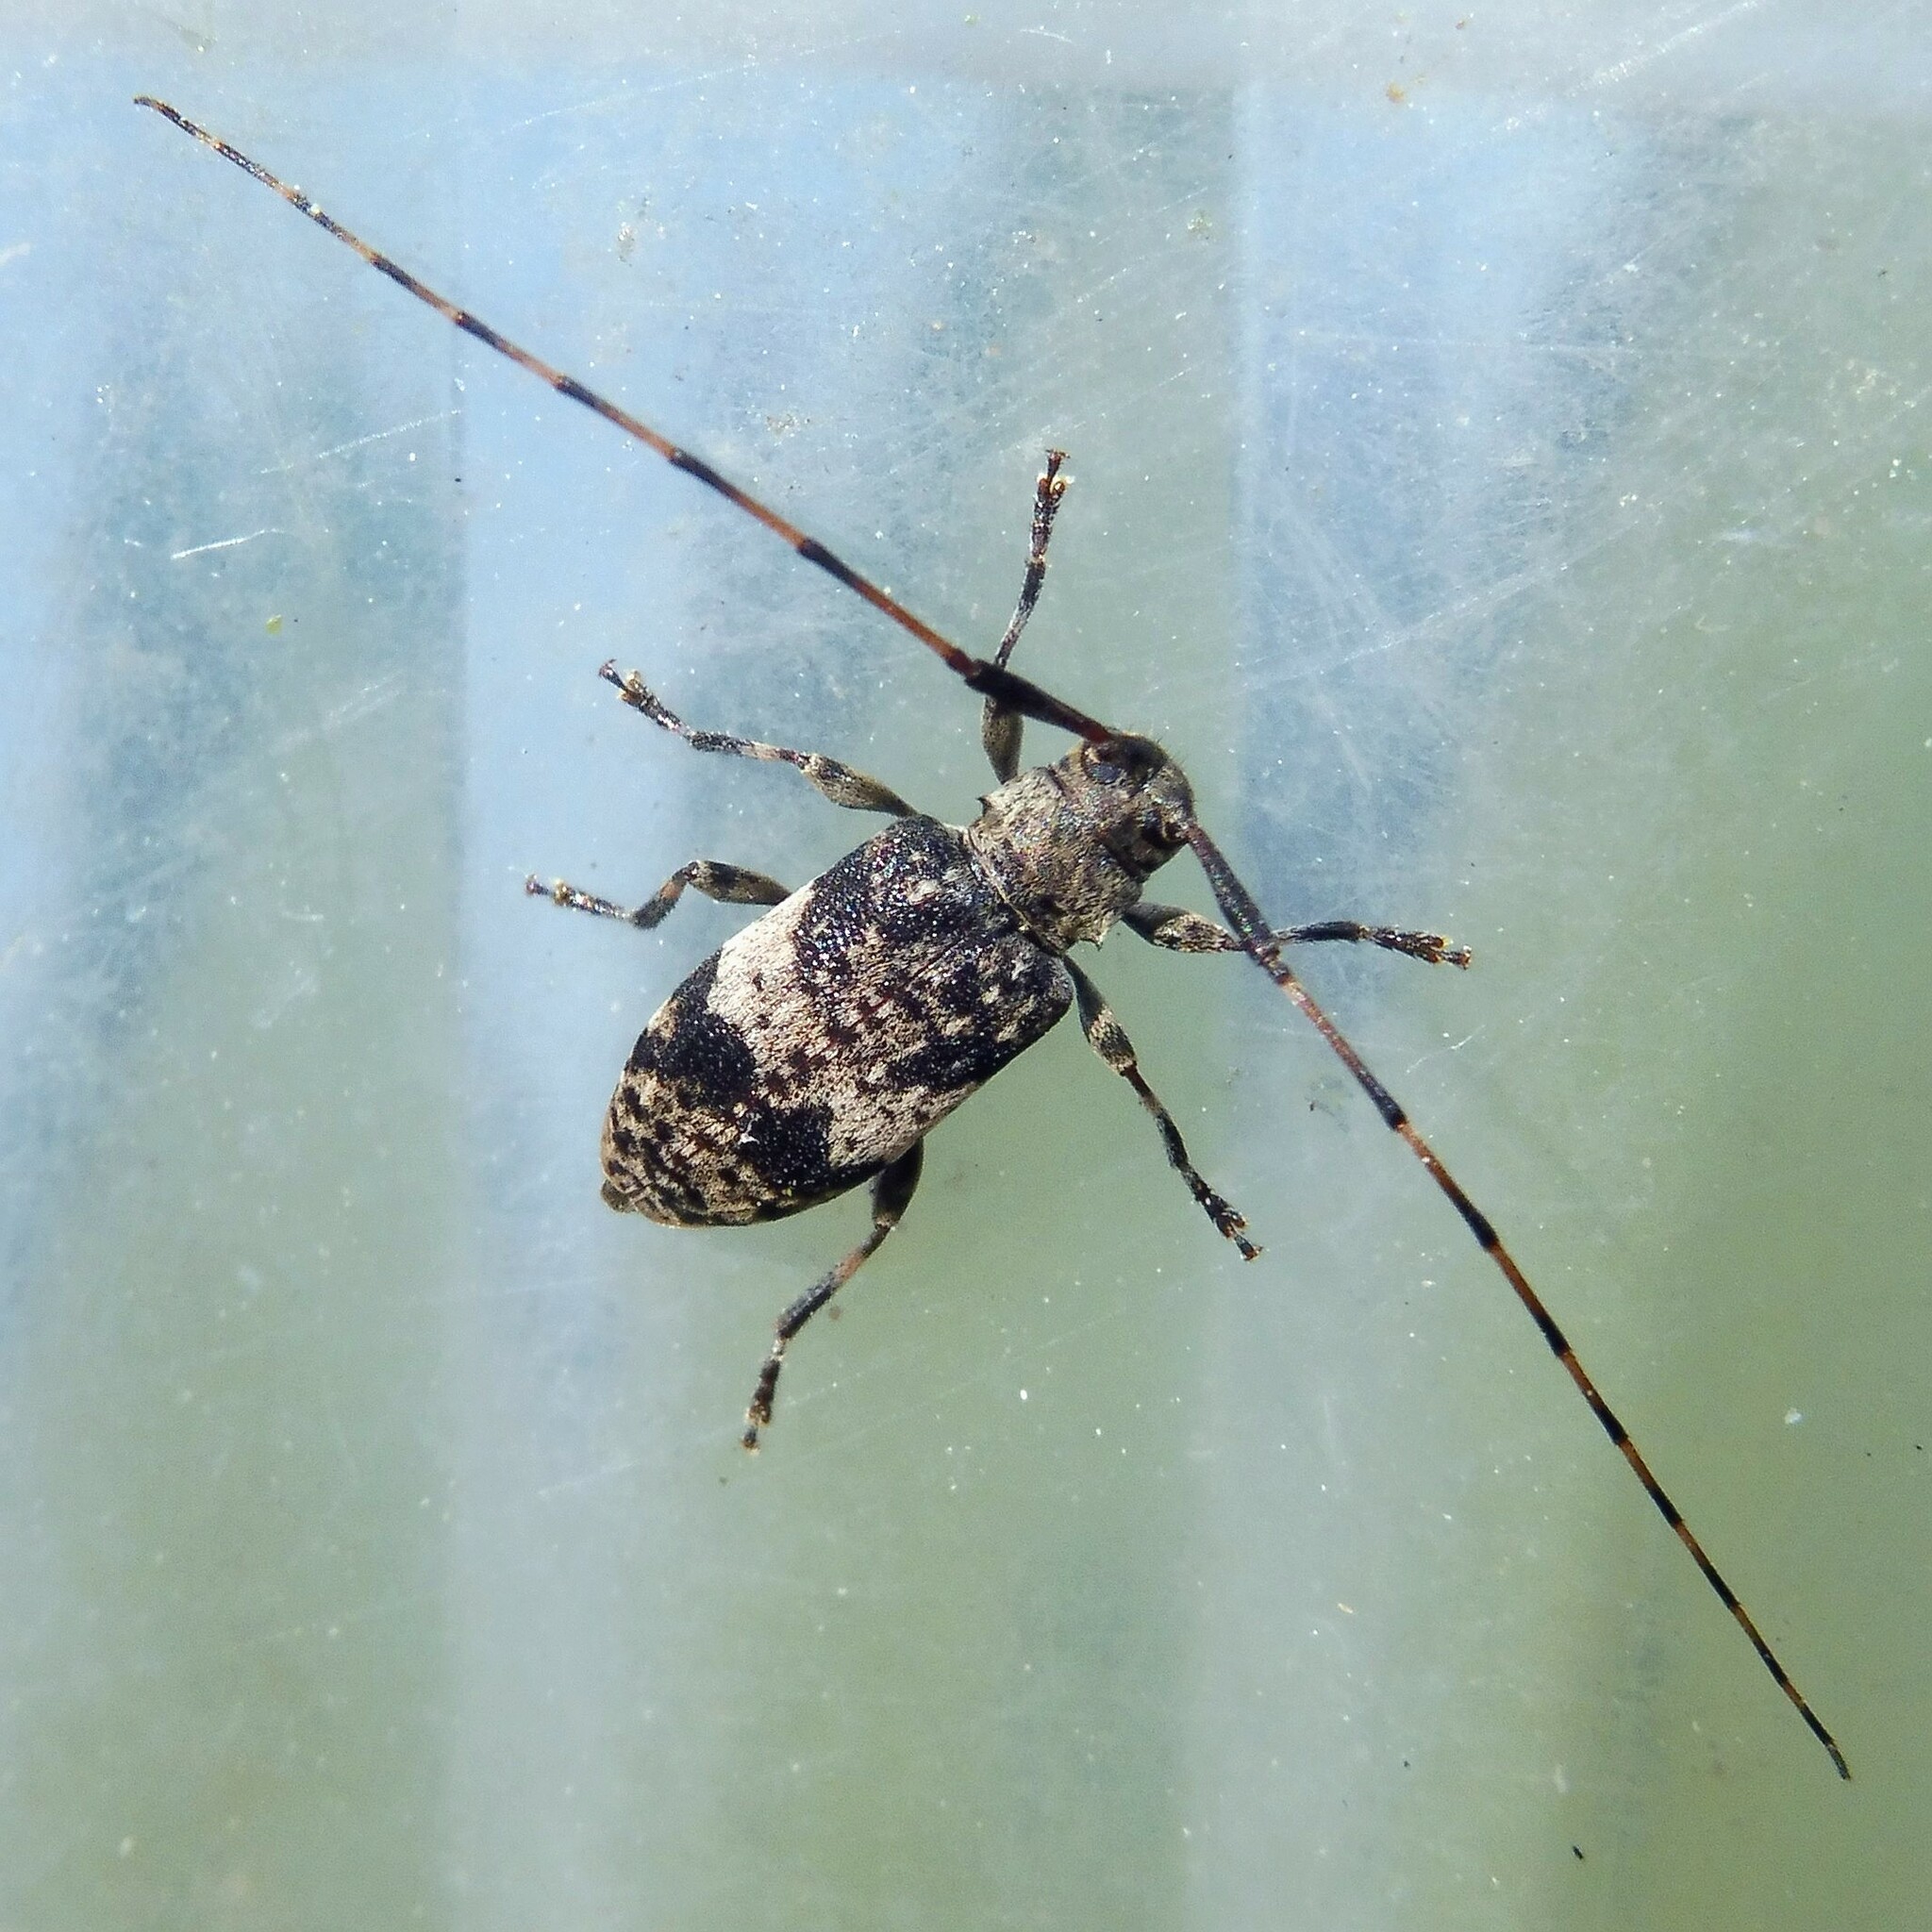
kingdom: Animalia
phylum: Arthropoda
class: Insecta
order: Coleoptera
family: Cerambycidae
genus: Leiopus
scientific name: Leiopus
